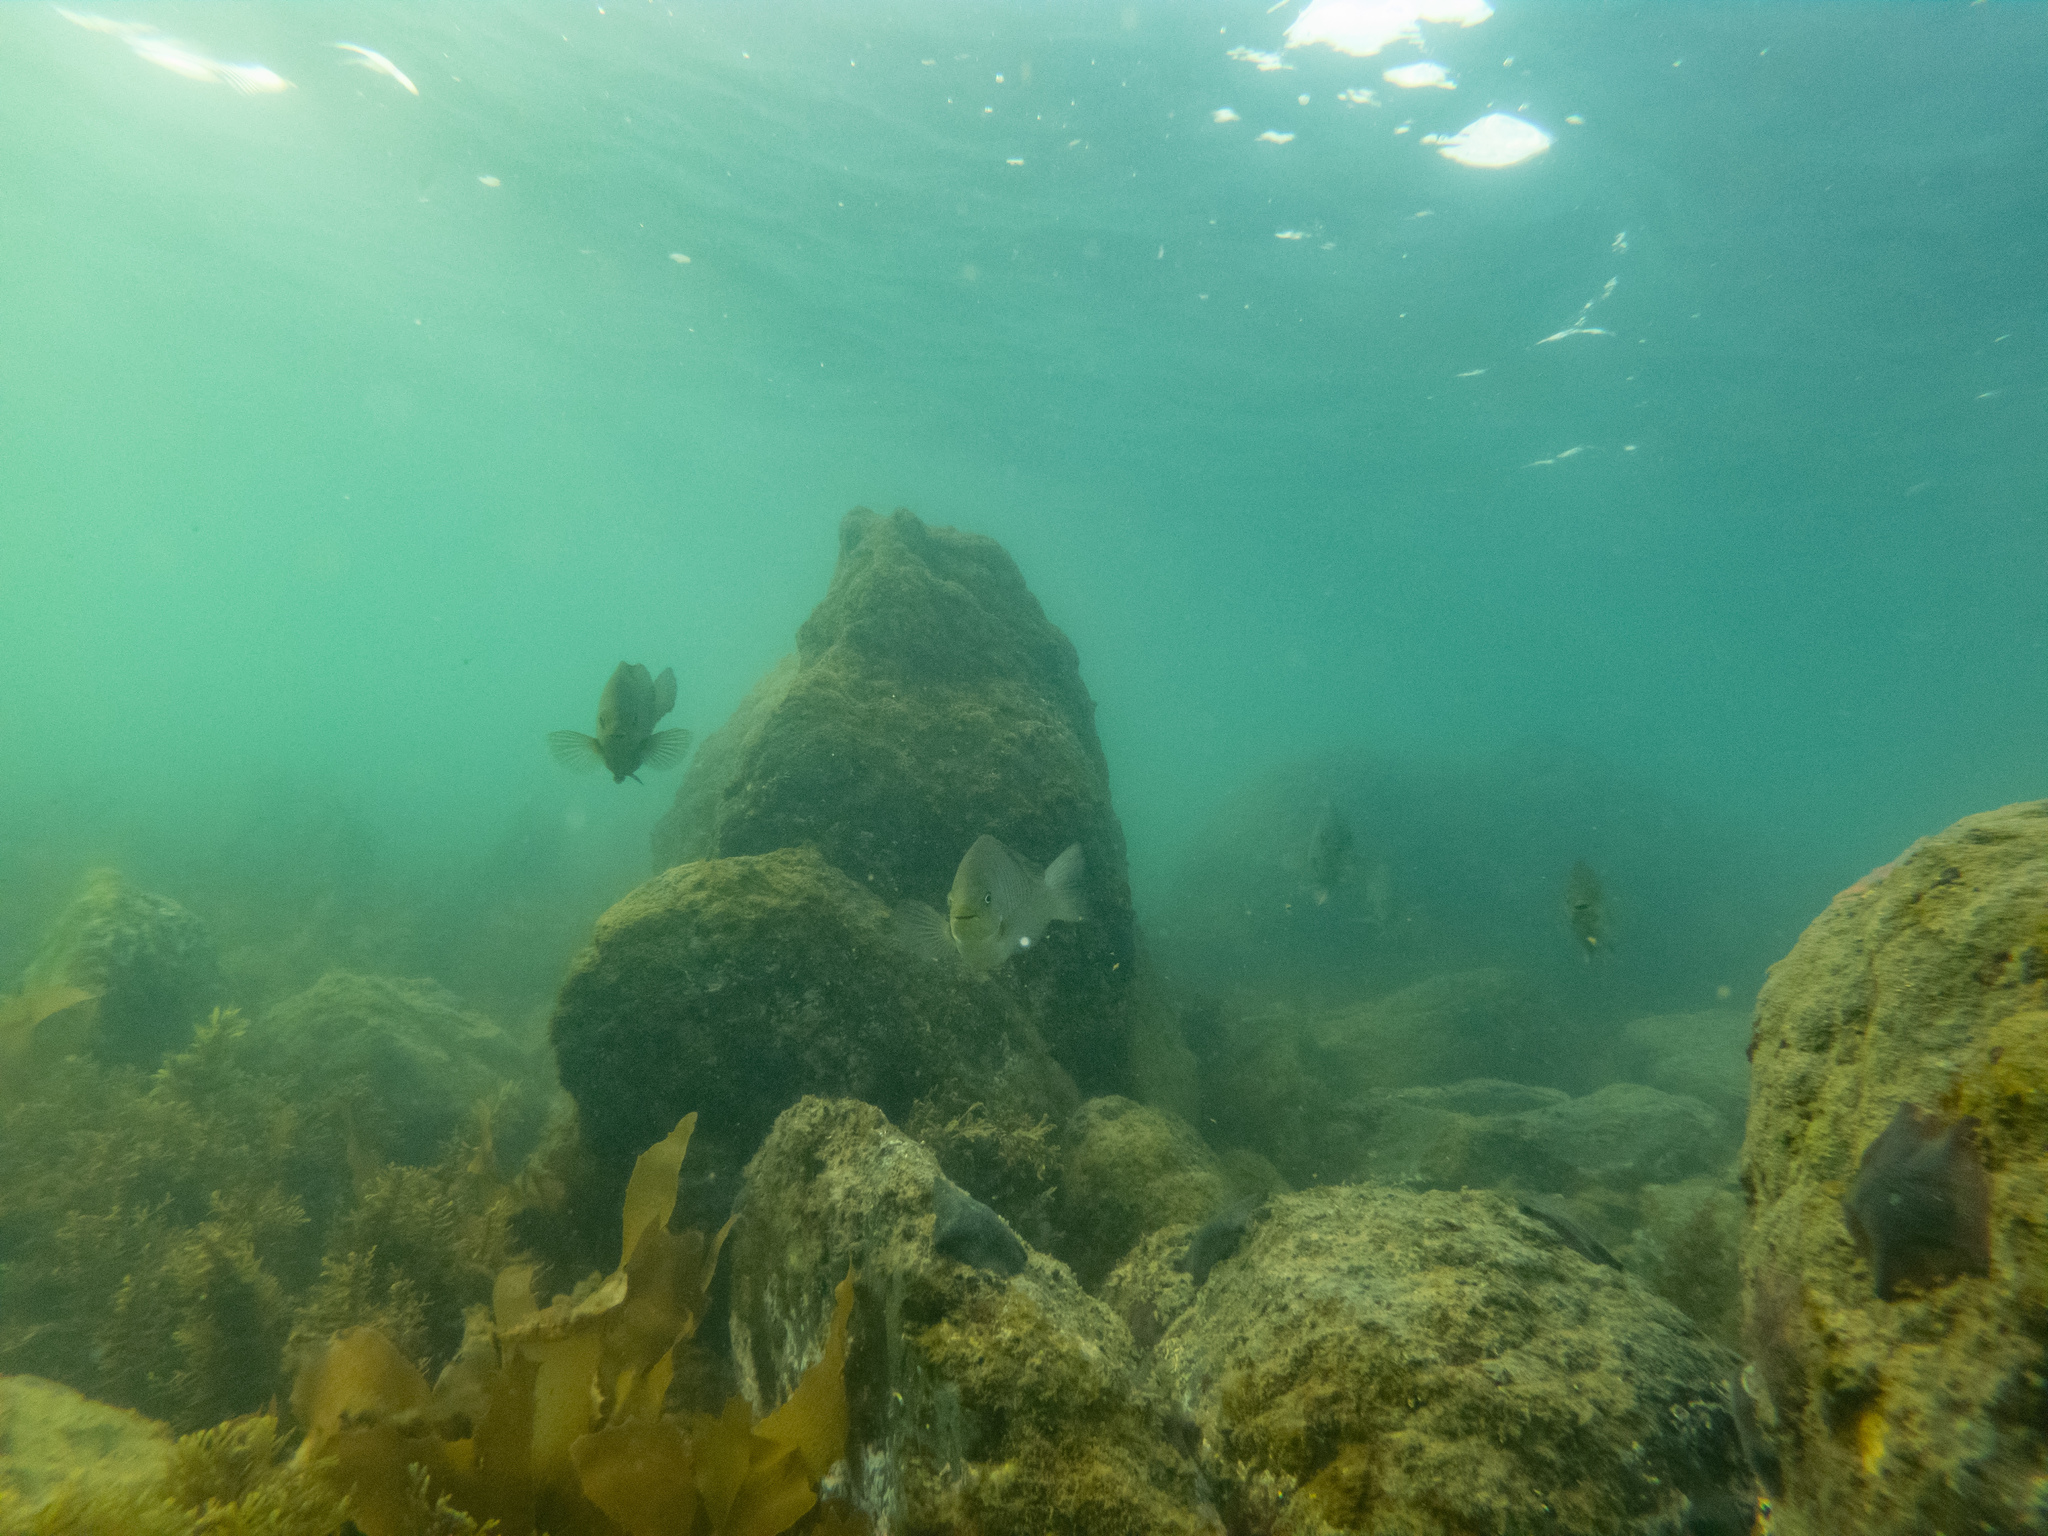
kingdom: Animalia
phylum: Chordata
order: Perciformes
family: Kyphosidae
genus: Girella
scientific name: Girella tricuspidata
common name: Parore
